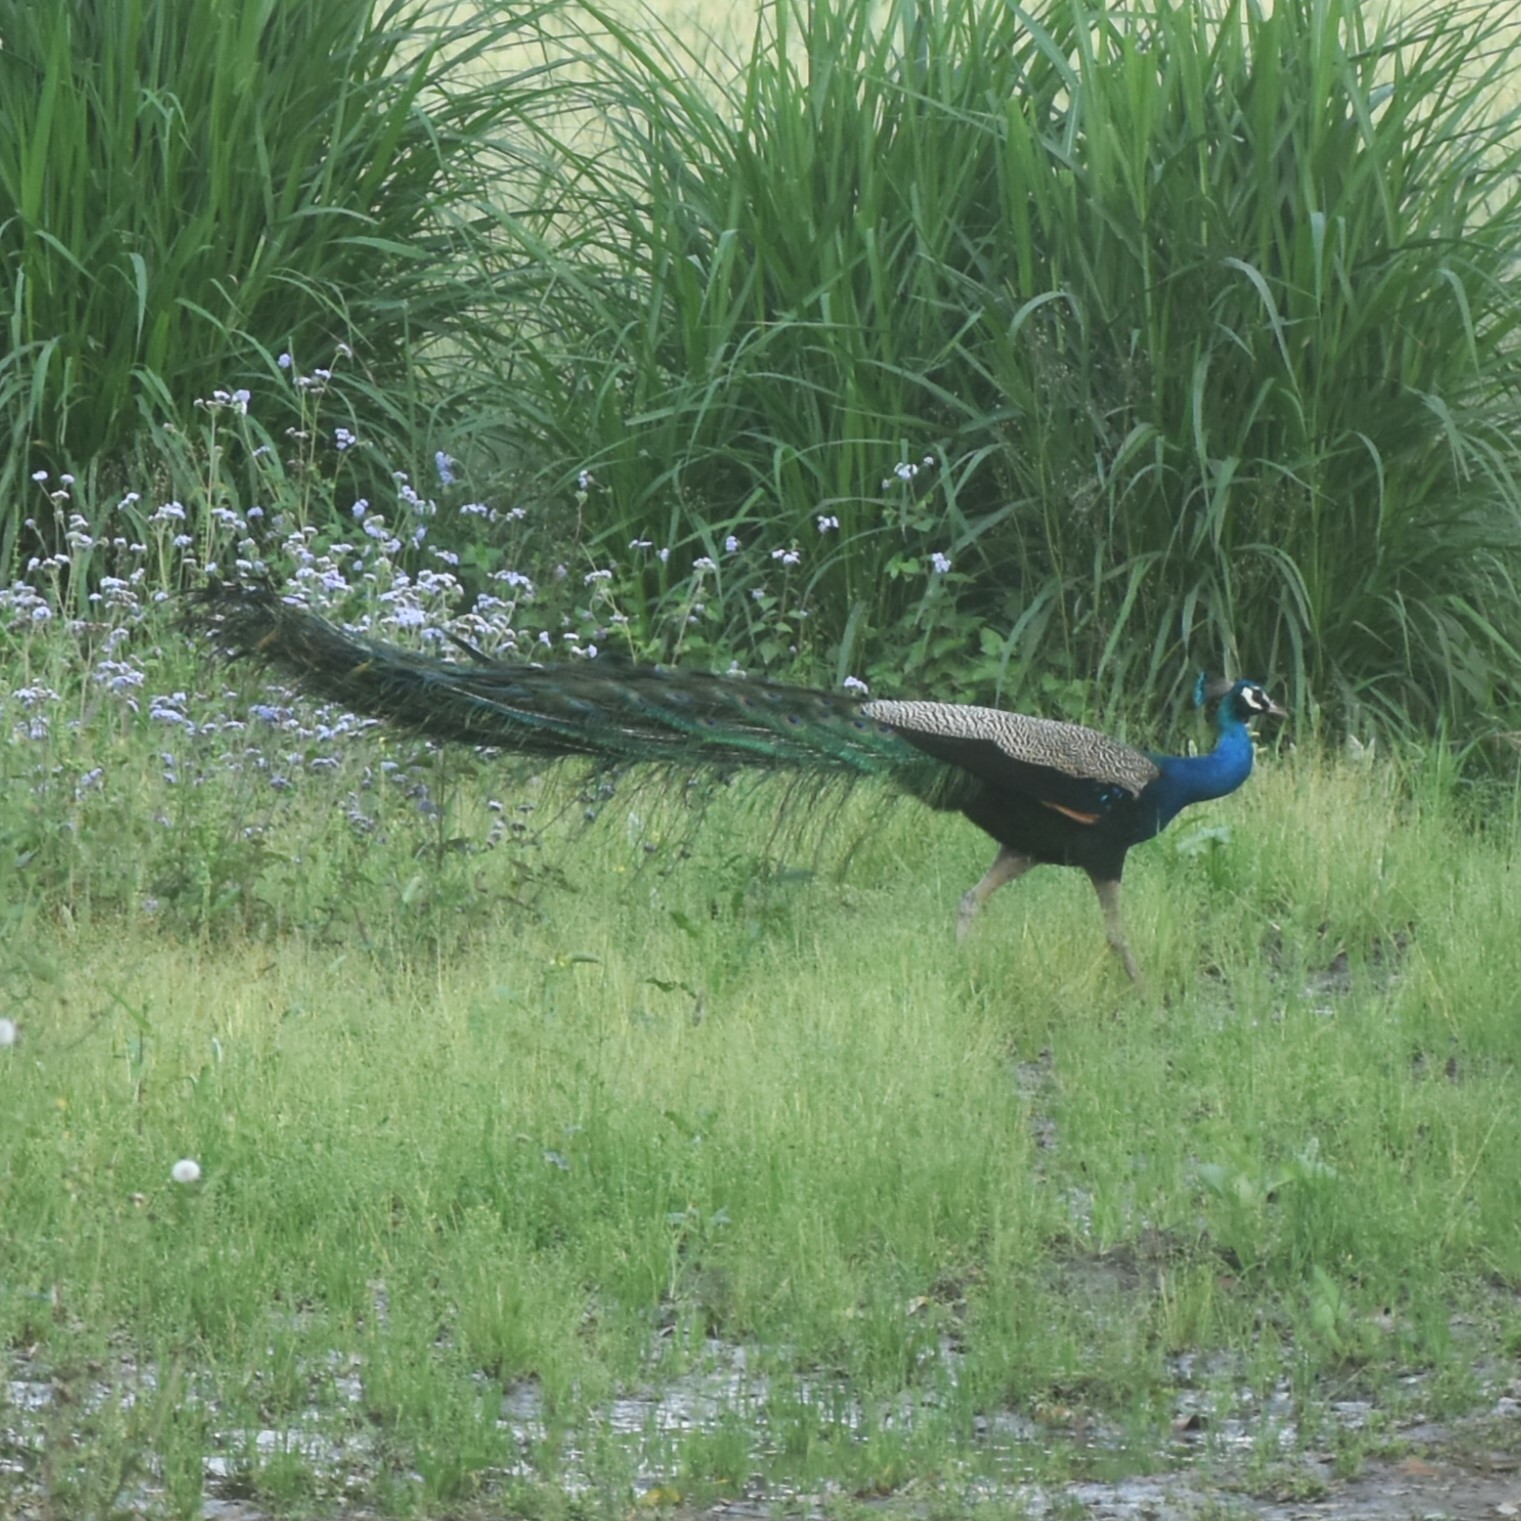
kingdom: Animalia
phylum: Chordata
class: Aves
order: Galliformes
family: Phasianidae
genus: Pavo
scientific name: Pavo cristatus
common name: Indian peafowl
